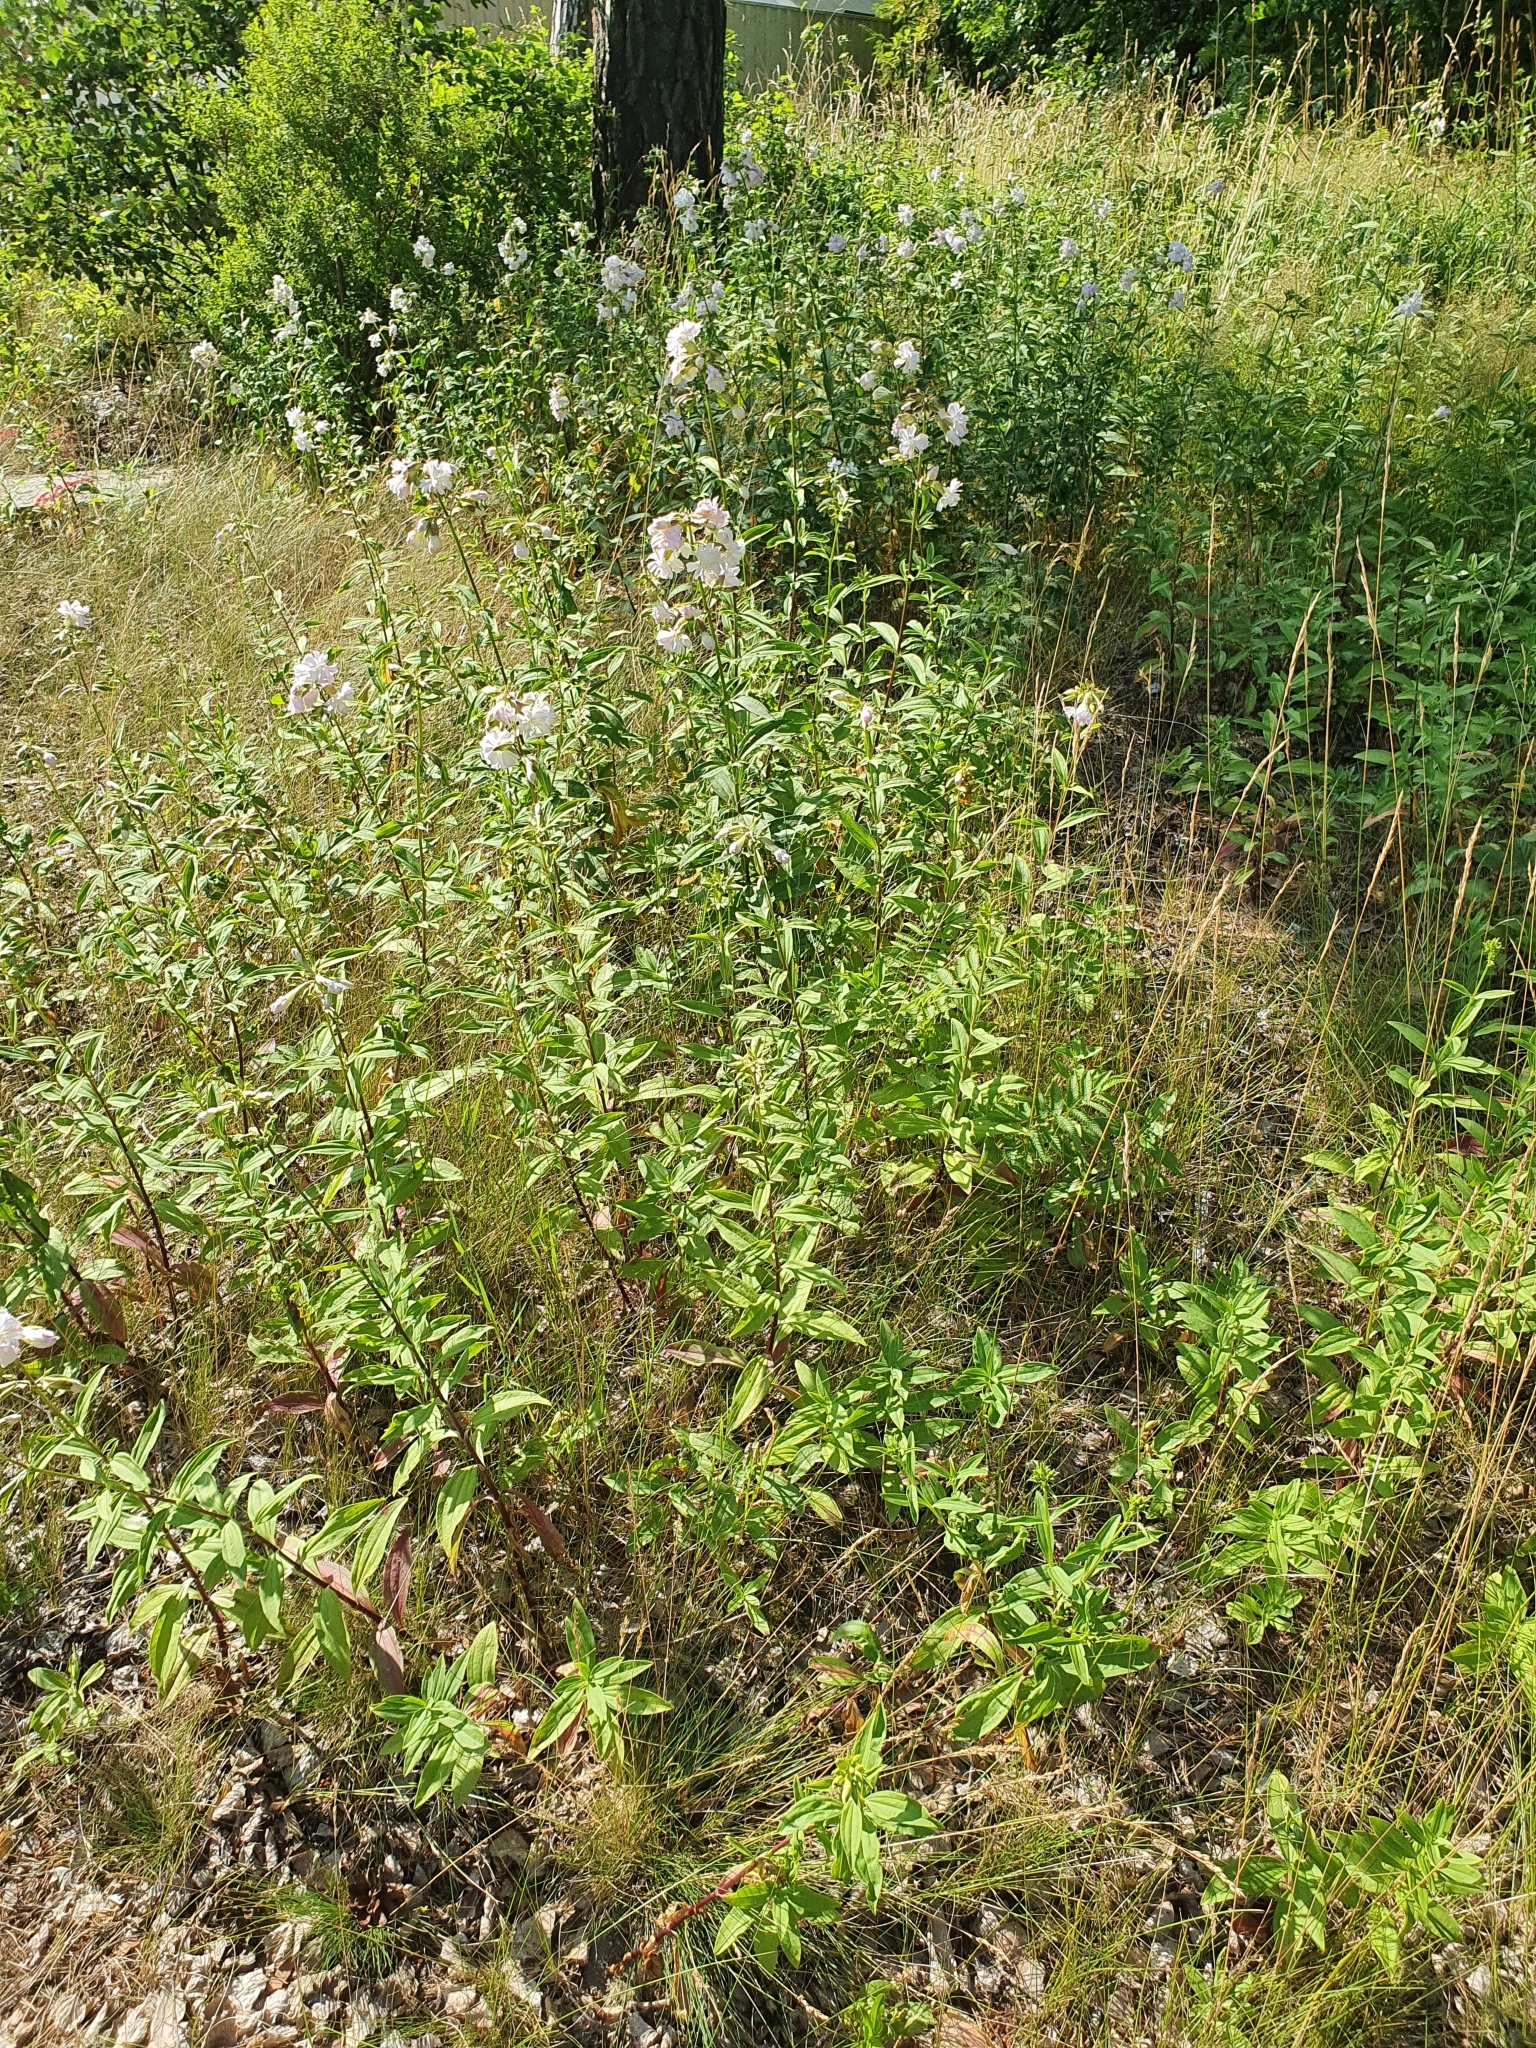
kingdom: Plantae
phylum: Tracheophyta
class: Magnoliopsida
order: Caryophyllales
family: Caryophyllaceae
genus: Saponaria
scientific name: Saponaria officinalis
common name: Soapwort
